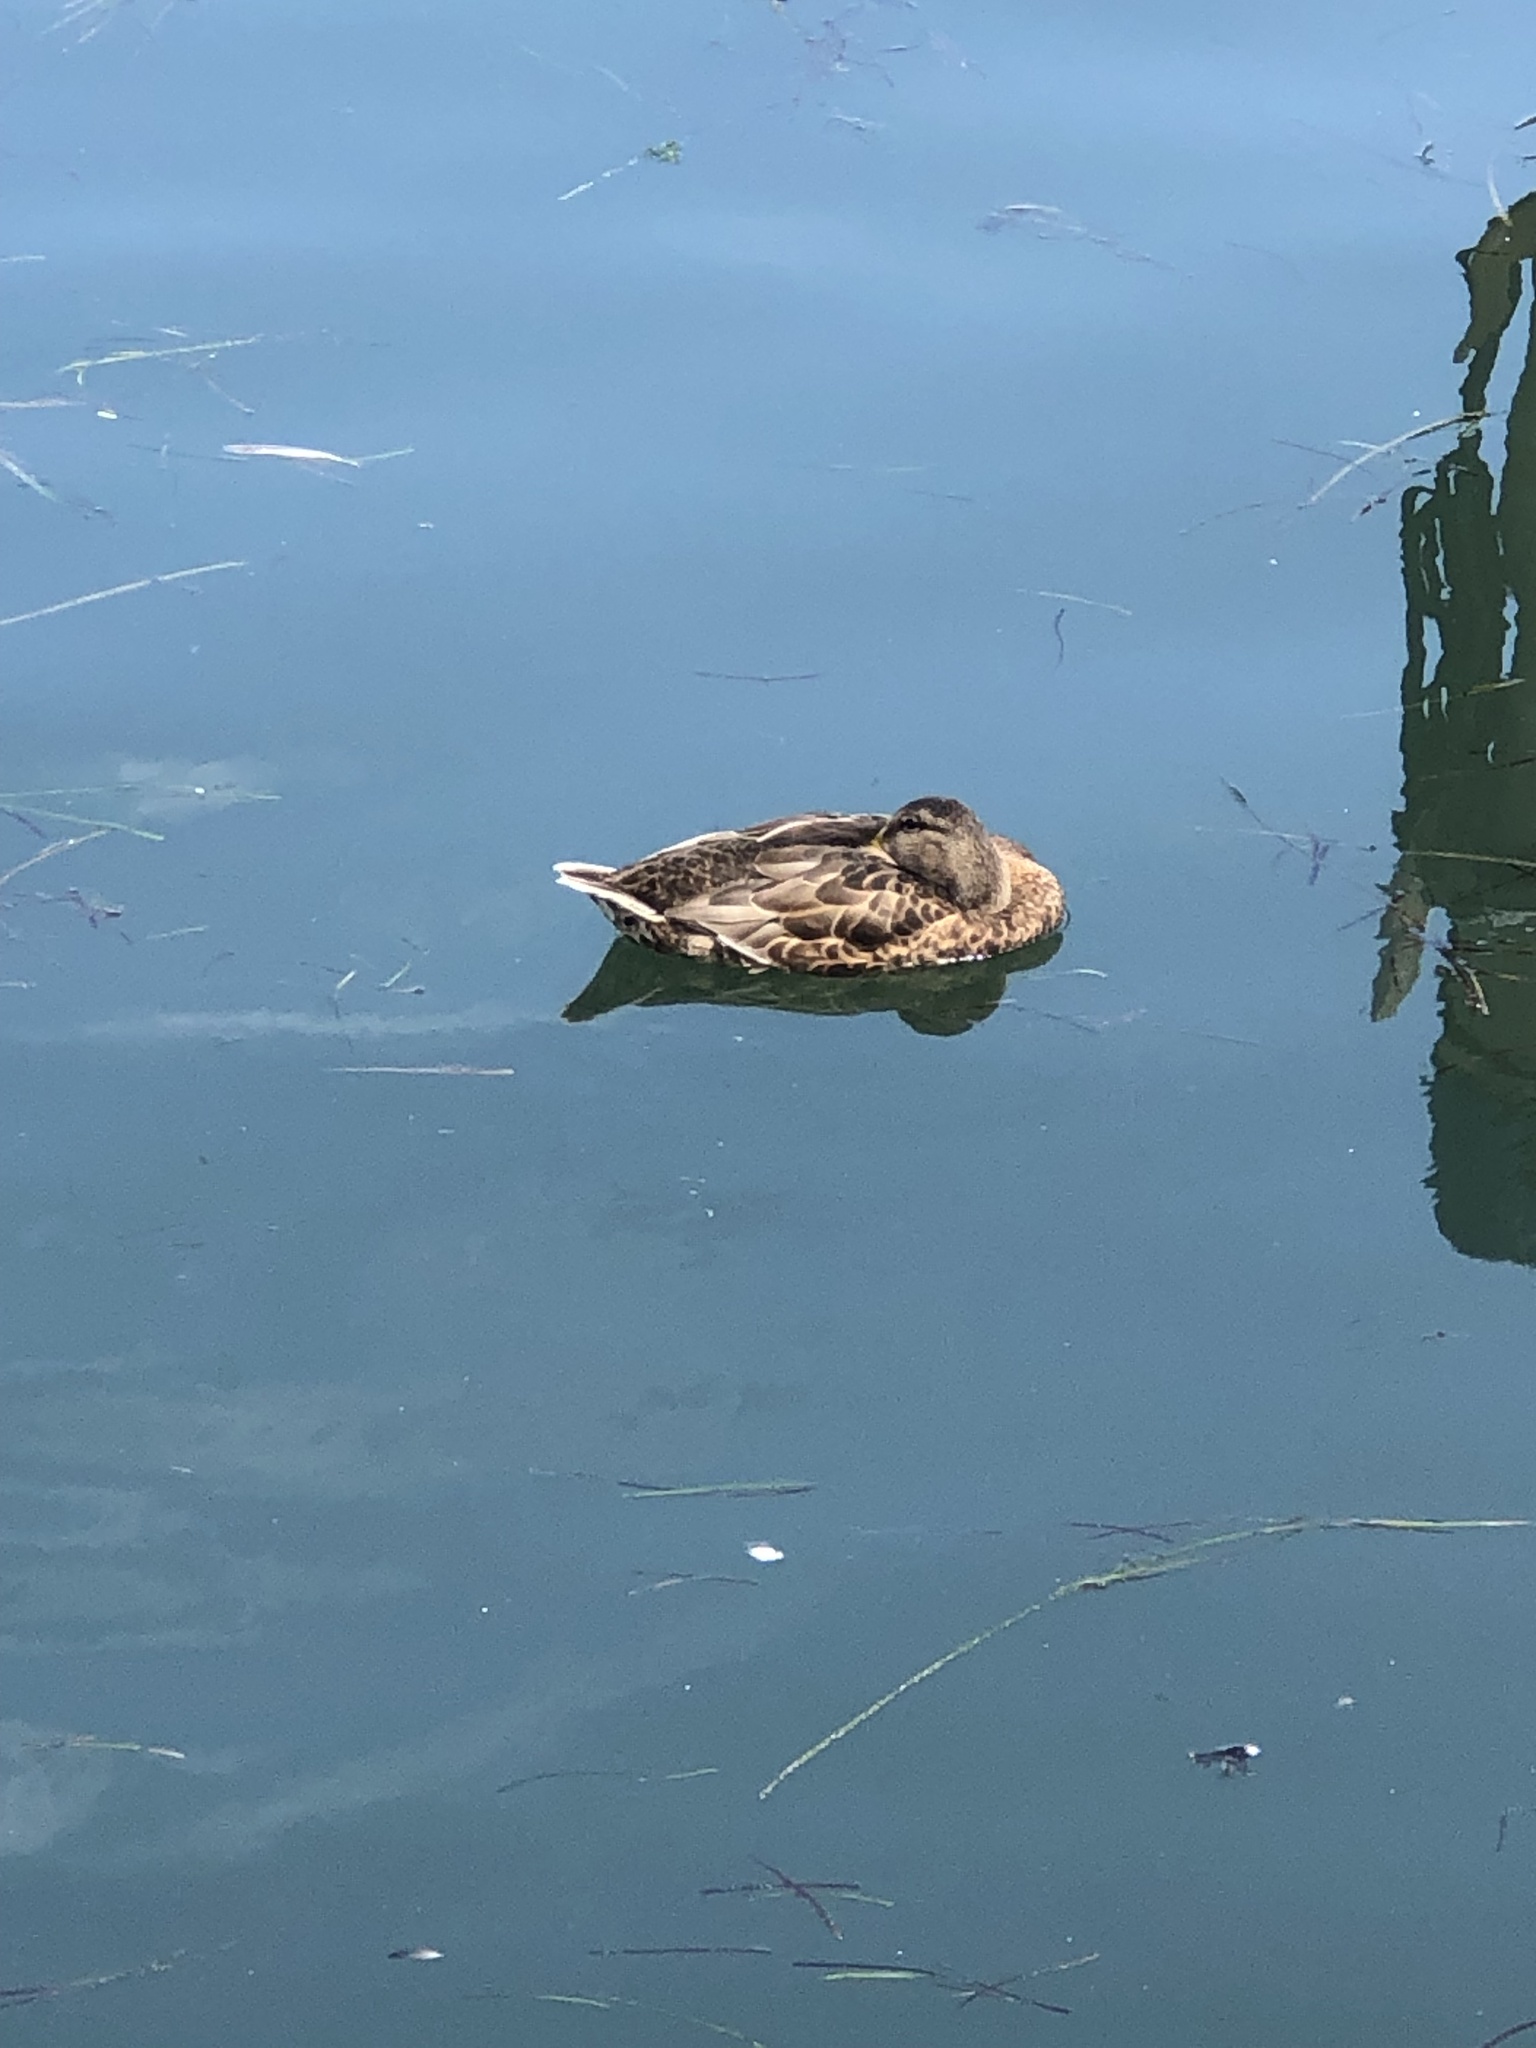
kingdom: Animalia
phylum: Chordata
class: Aves
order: Anseriformes
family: Anatidae
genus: Anas
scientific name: Anas platyrhynchos
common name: Mallard
